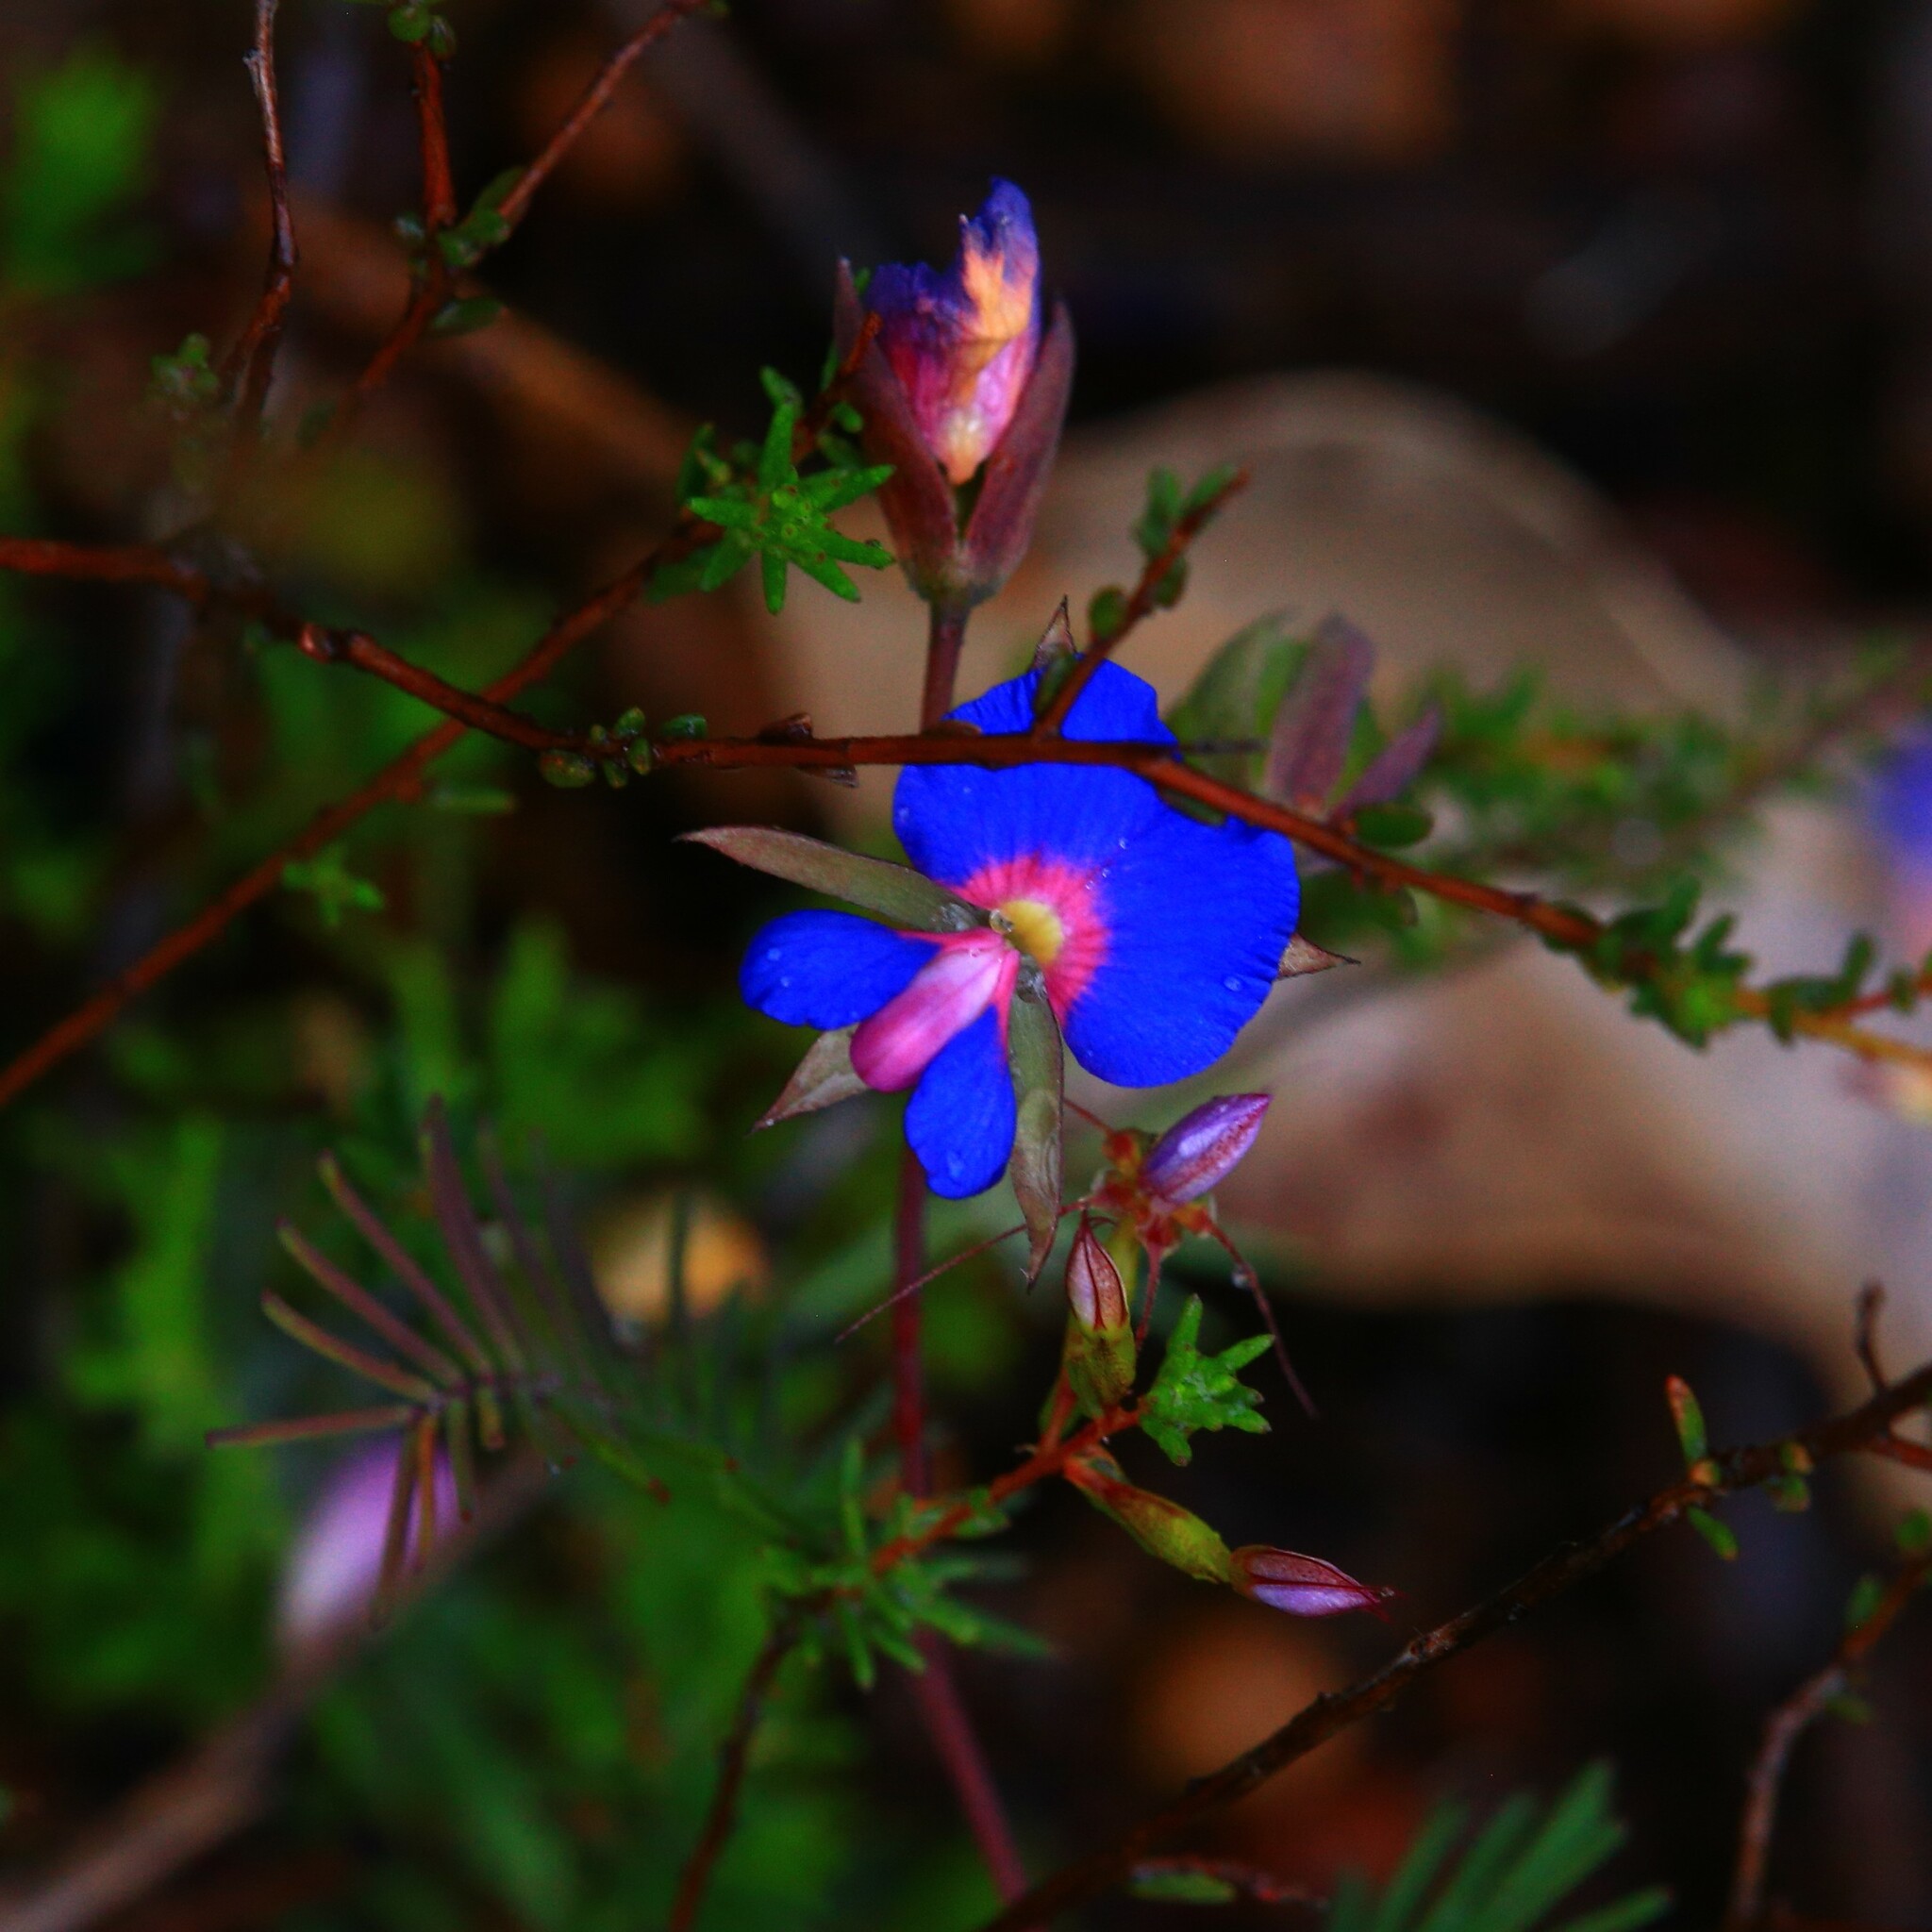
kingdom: Plantae
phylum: Tracheophyta
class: Magnoliopsida
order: Fabales
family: Fabaceae
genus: Gompholobium
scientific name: Gompholobium cyaninum
